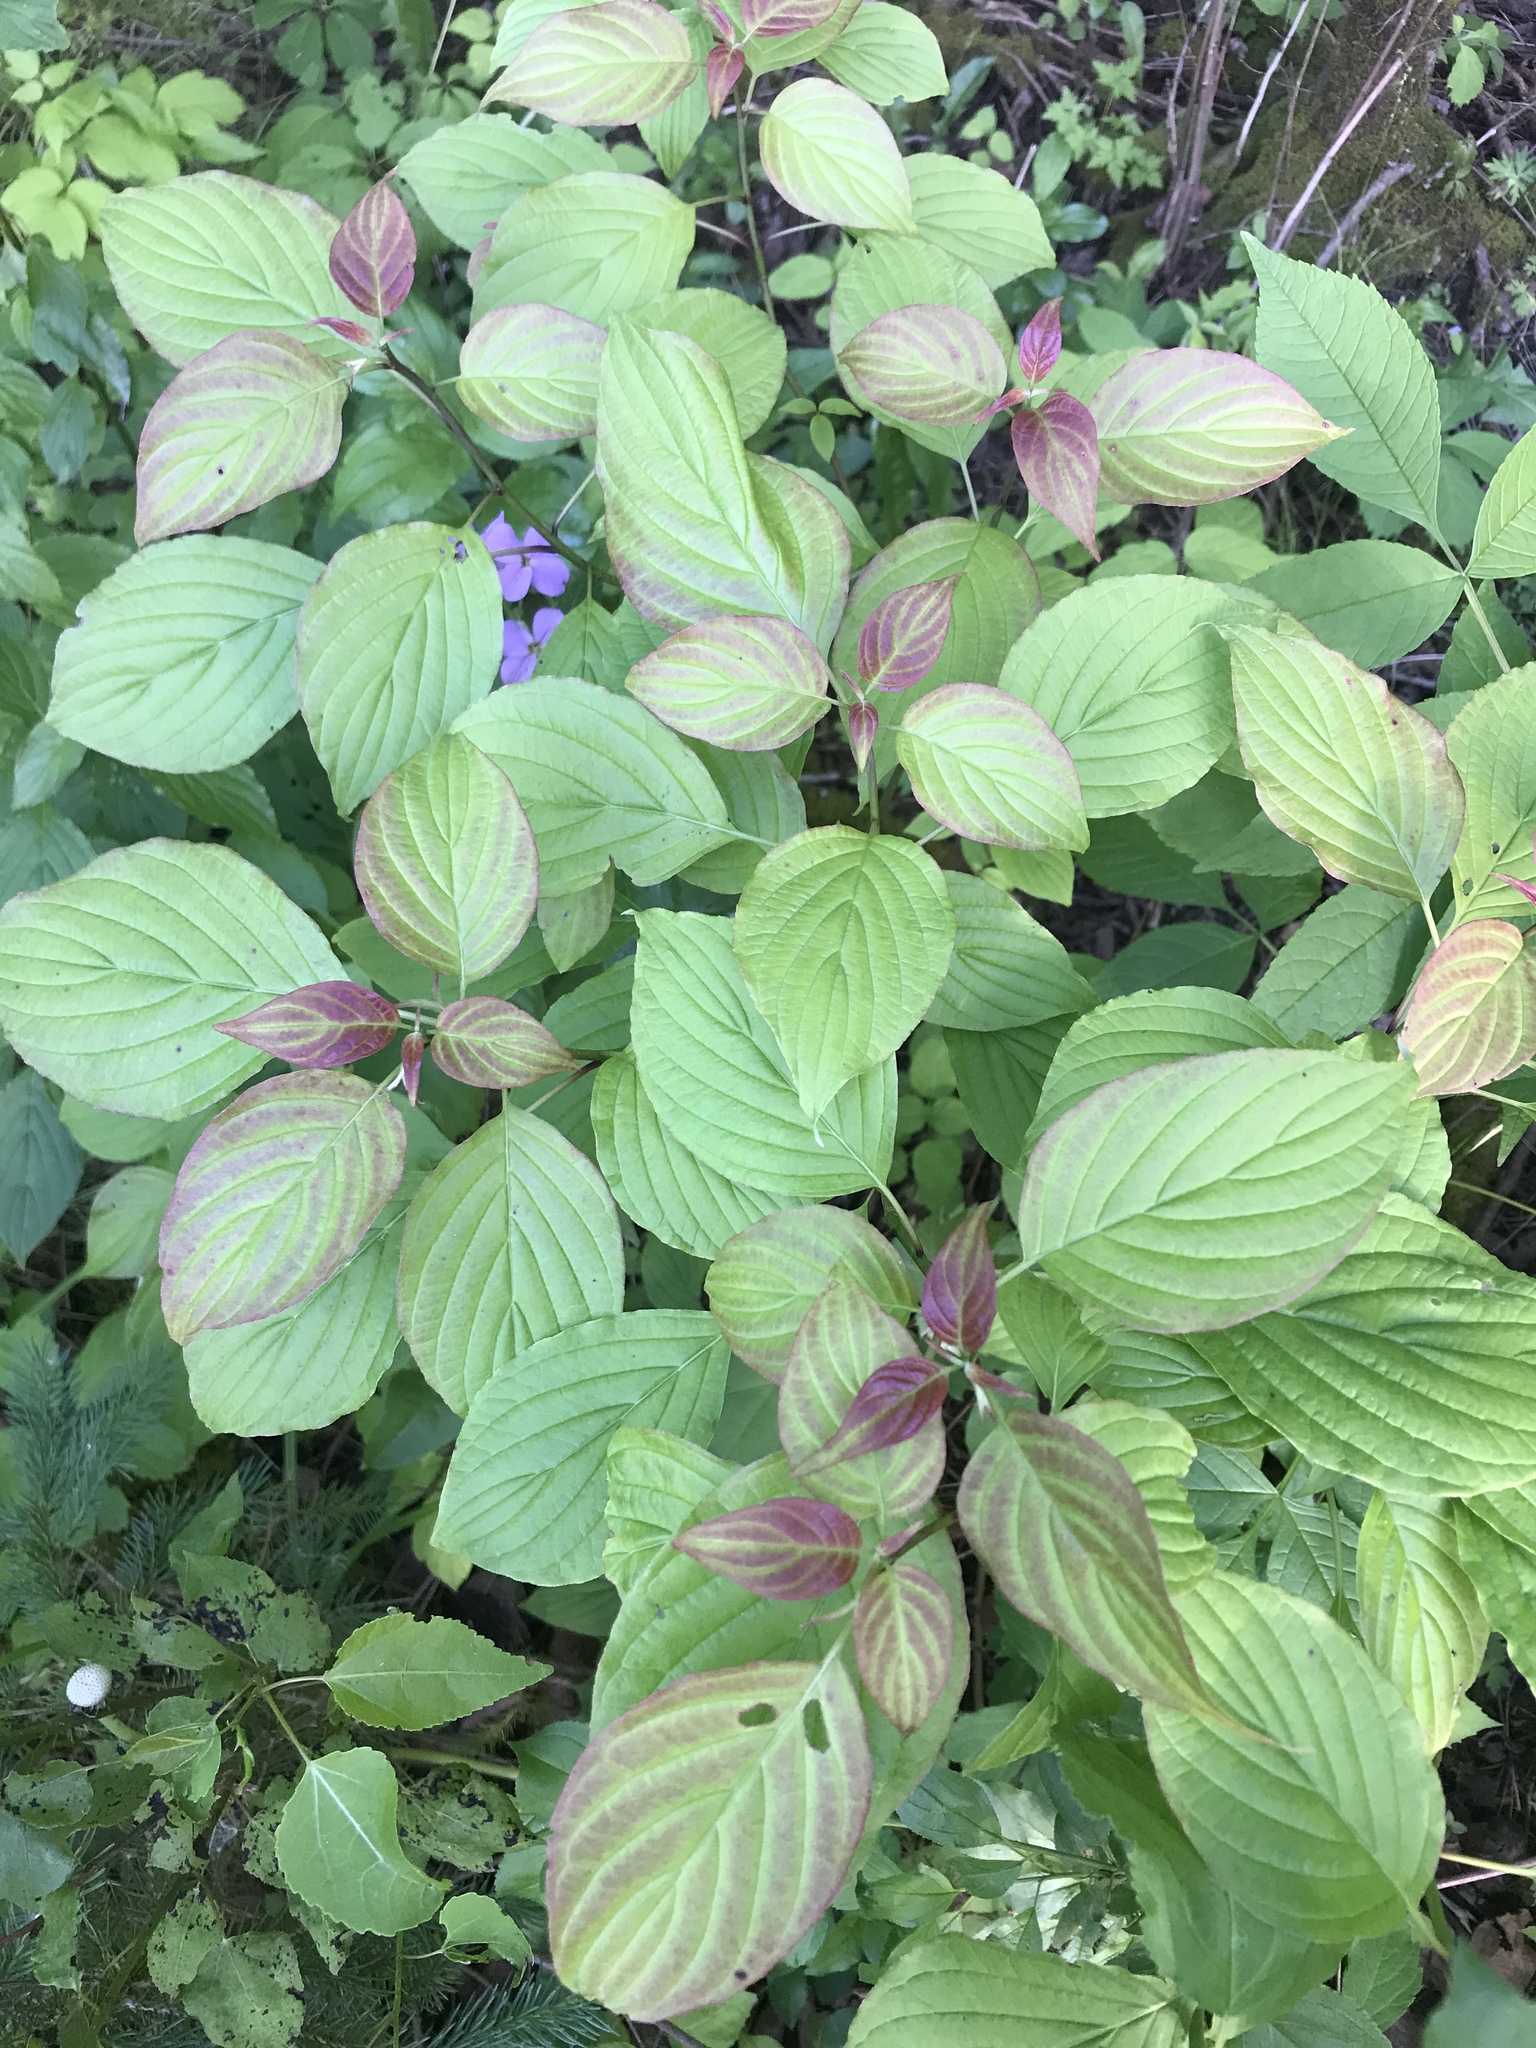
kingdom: Plantae
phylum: Tracheophyta
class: Magnoliopsida
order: Cornales
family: Cornaceae
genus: Cornus
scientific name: Cornus alternifolia
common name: Pagoda dogwood
